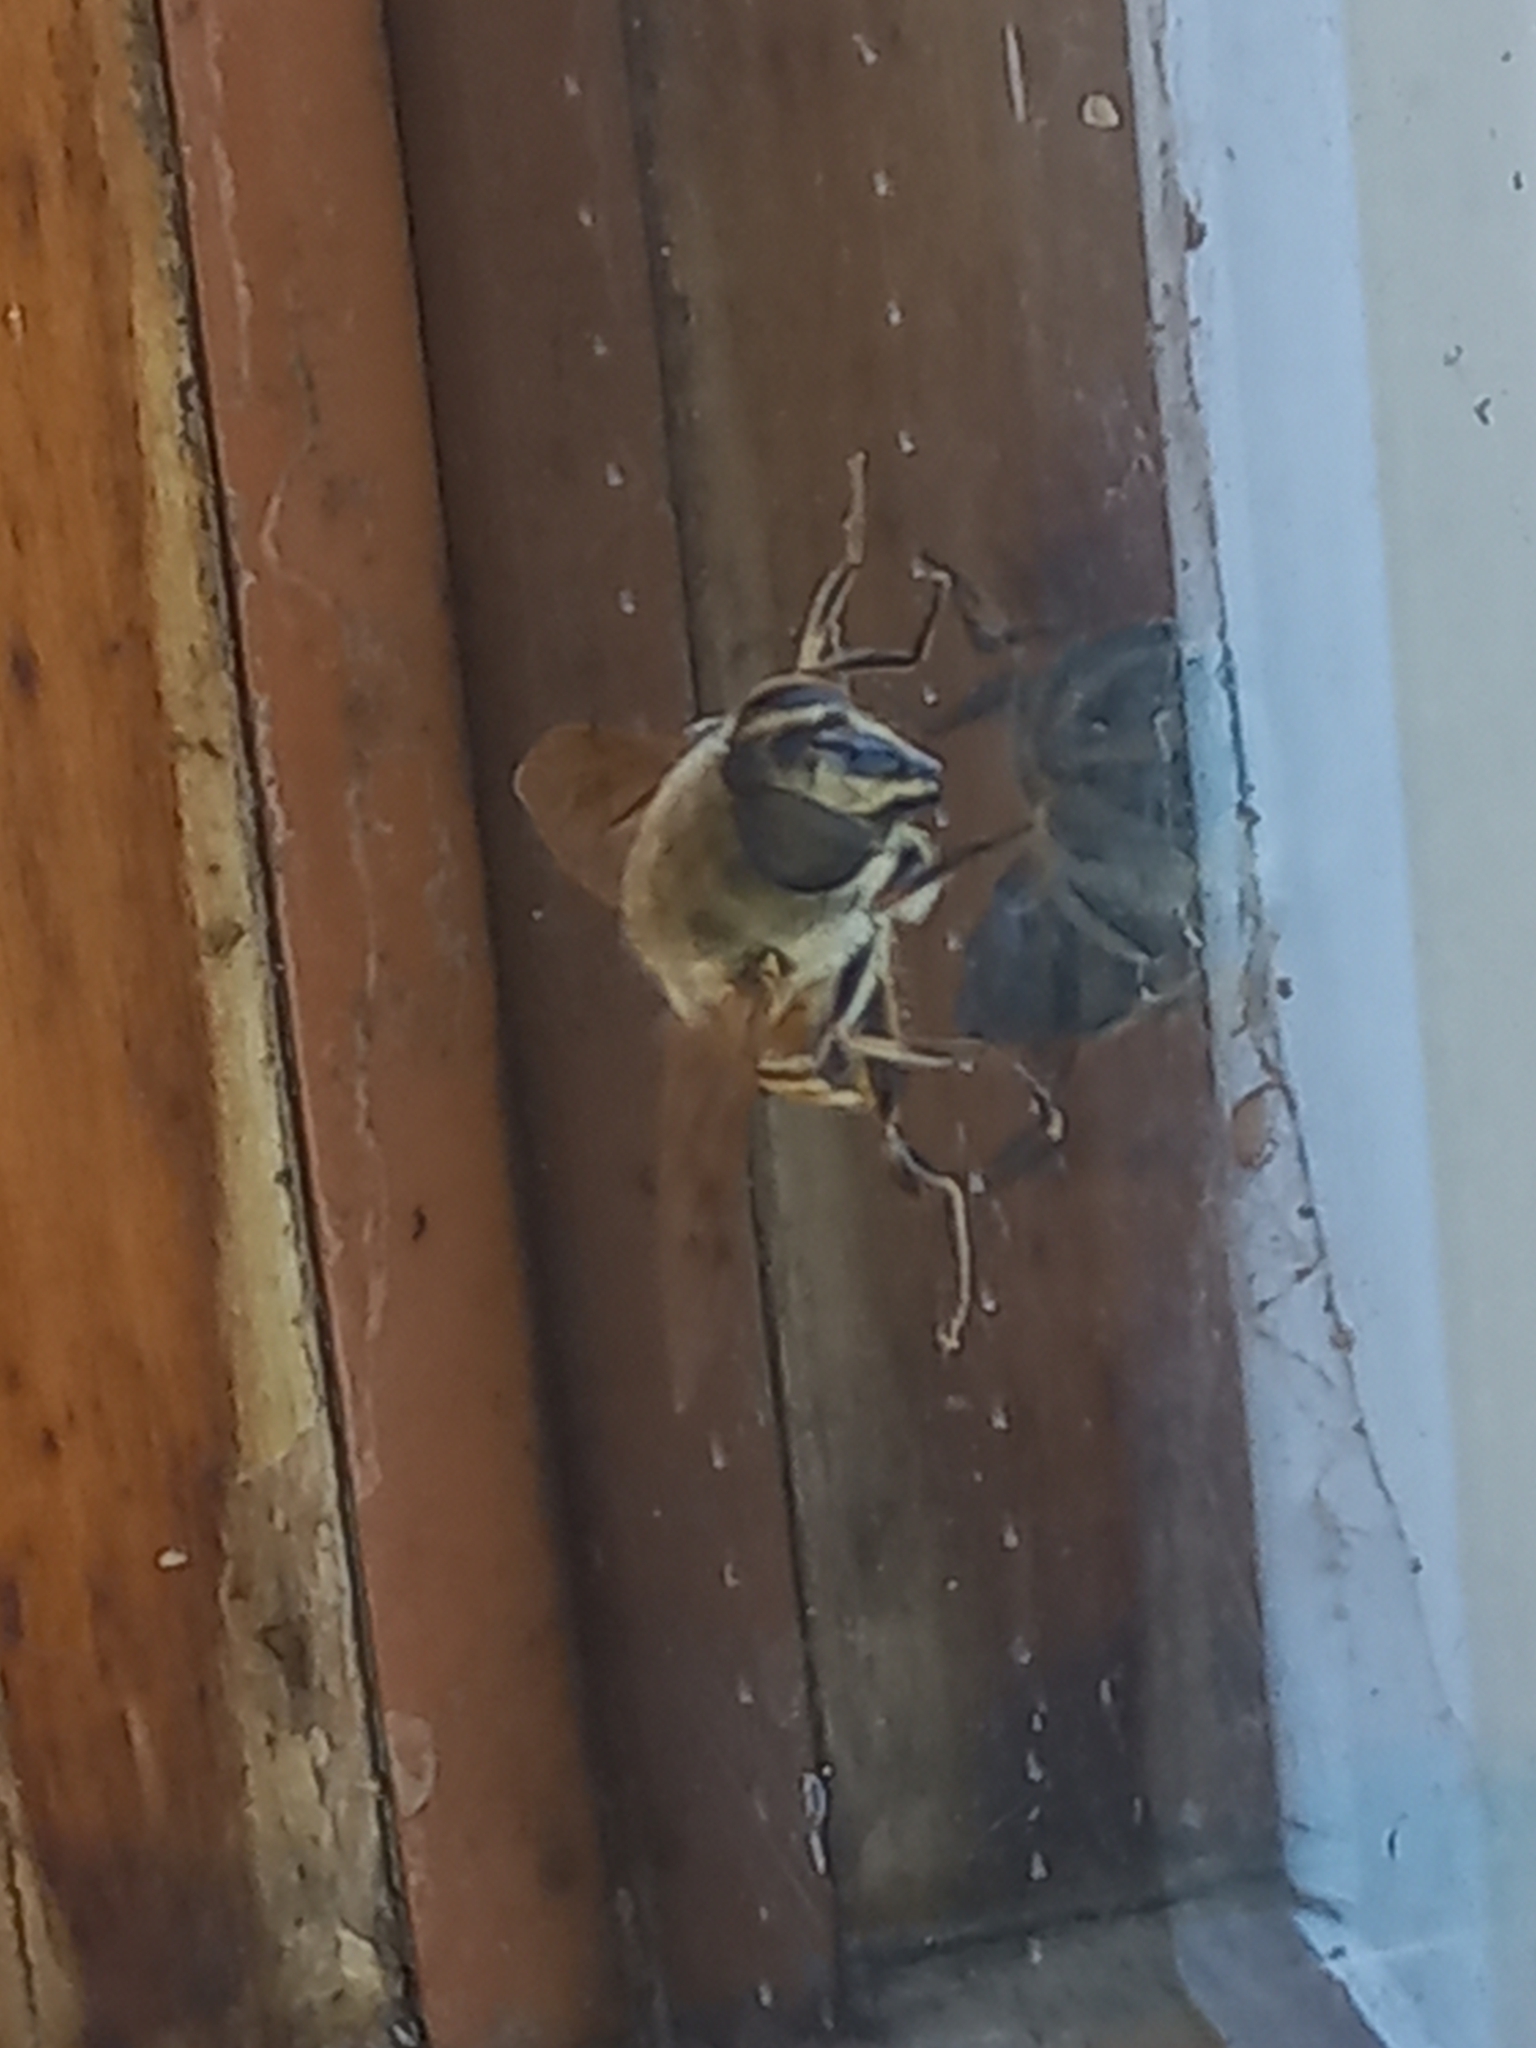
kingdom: Animalia
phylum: Arthropoda
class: Insecta
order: Diptera
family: Syrphidae
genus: Eristalis
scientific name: Eristalis tenax
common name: Drone fly
